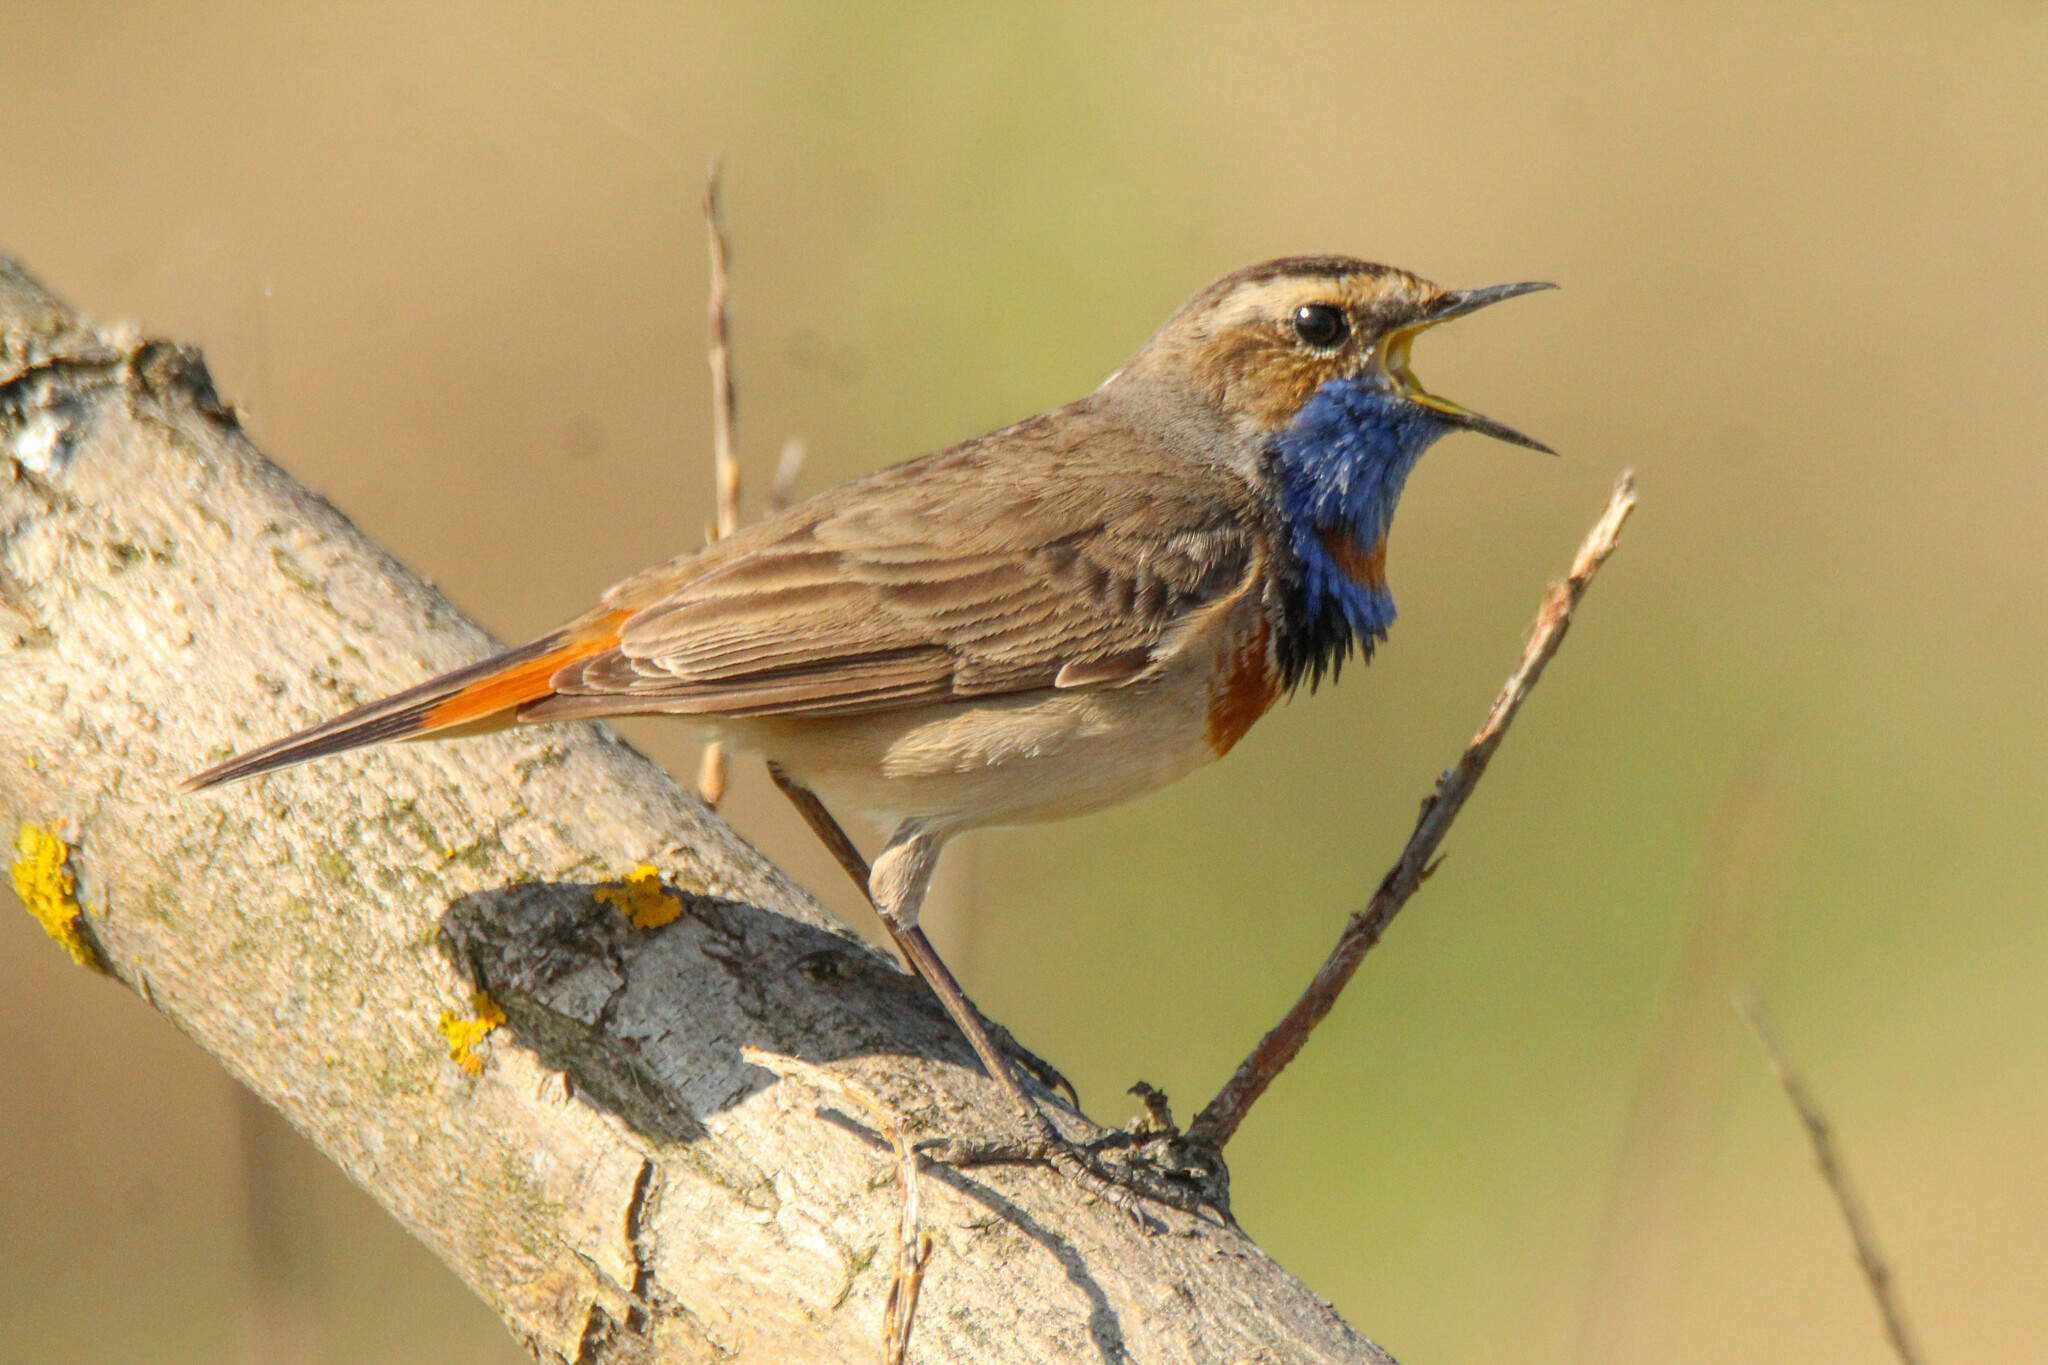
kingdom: Animalia
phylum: Chordata
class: Aves
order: Passeriformes
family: Muscicapidae
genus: Luscinia
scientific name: Luscinia svecica
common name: Bluethroat
